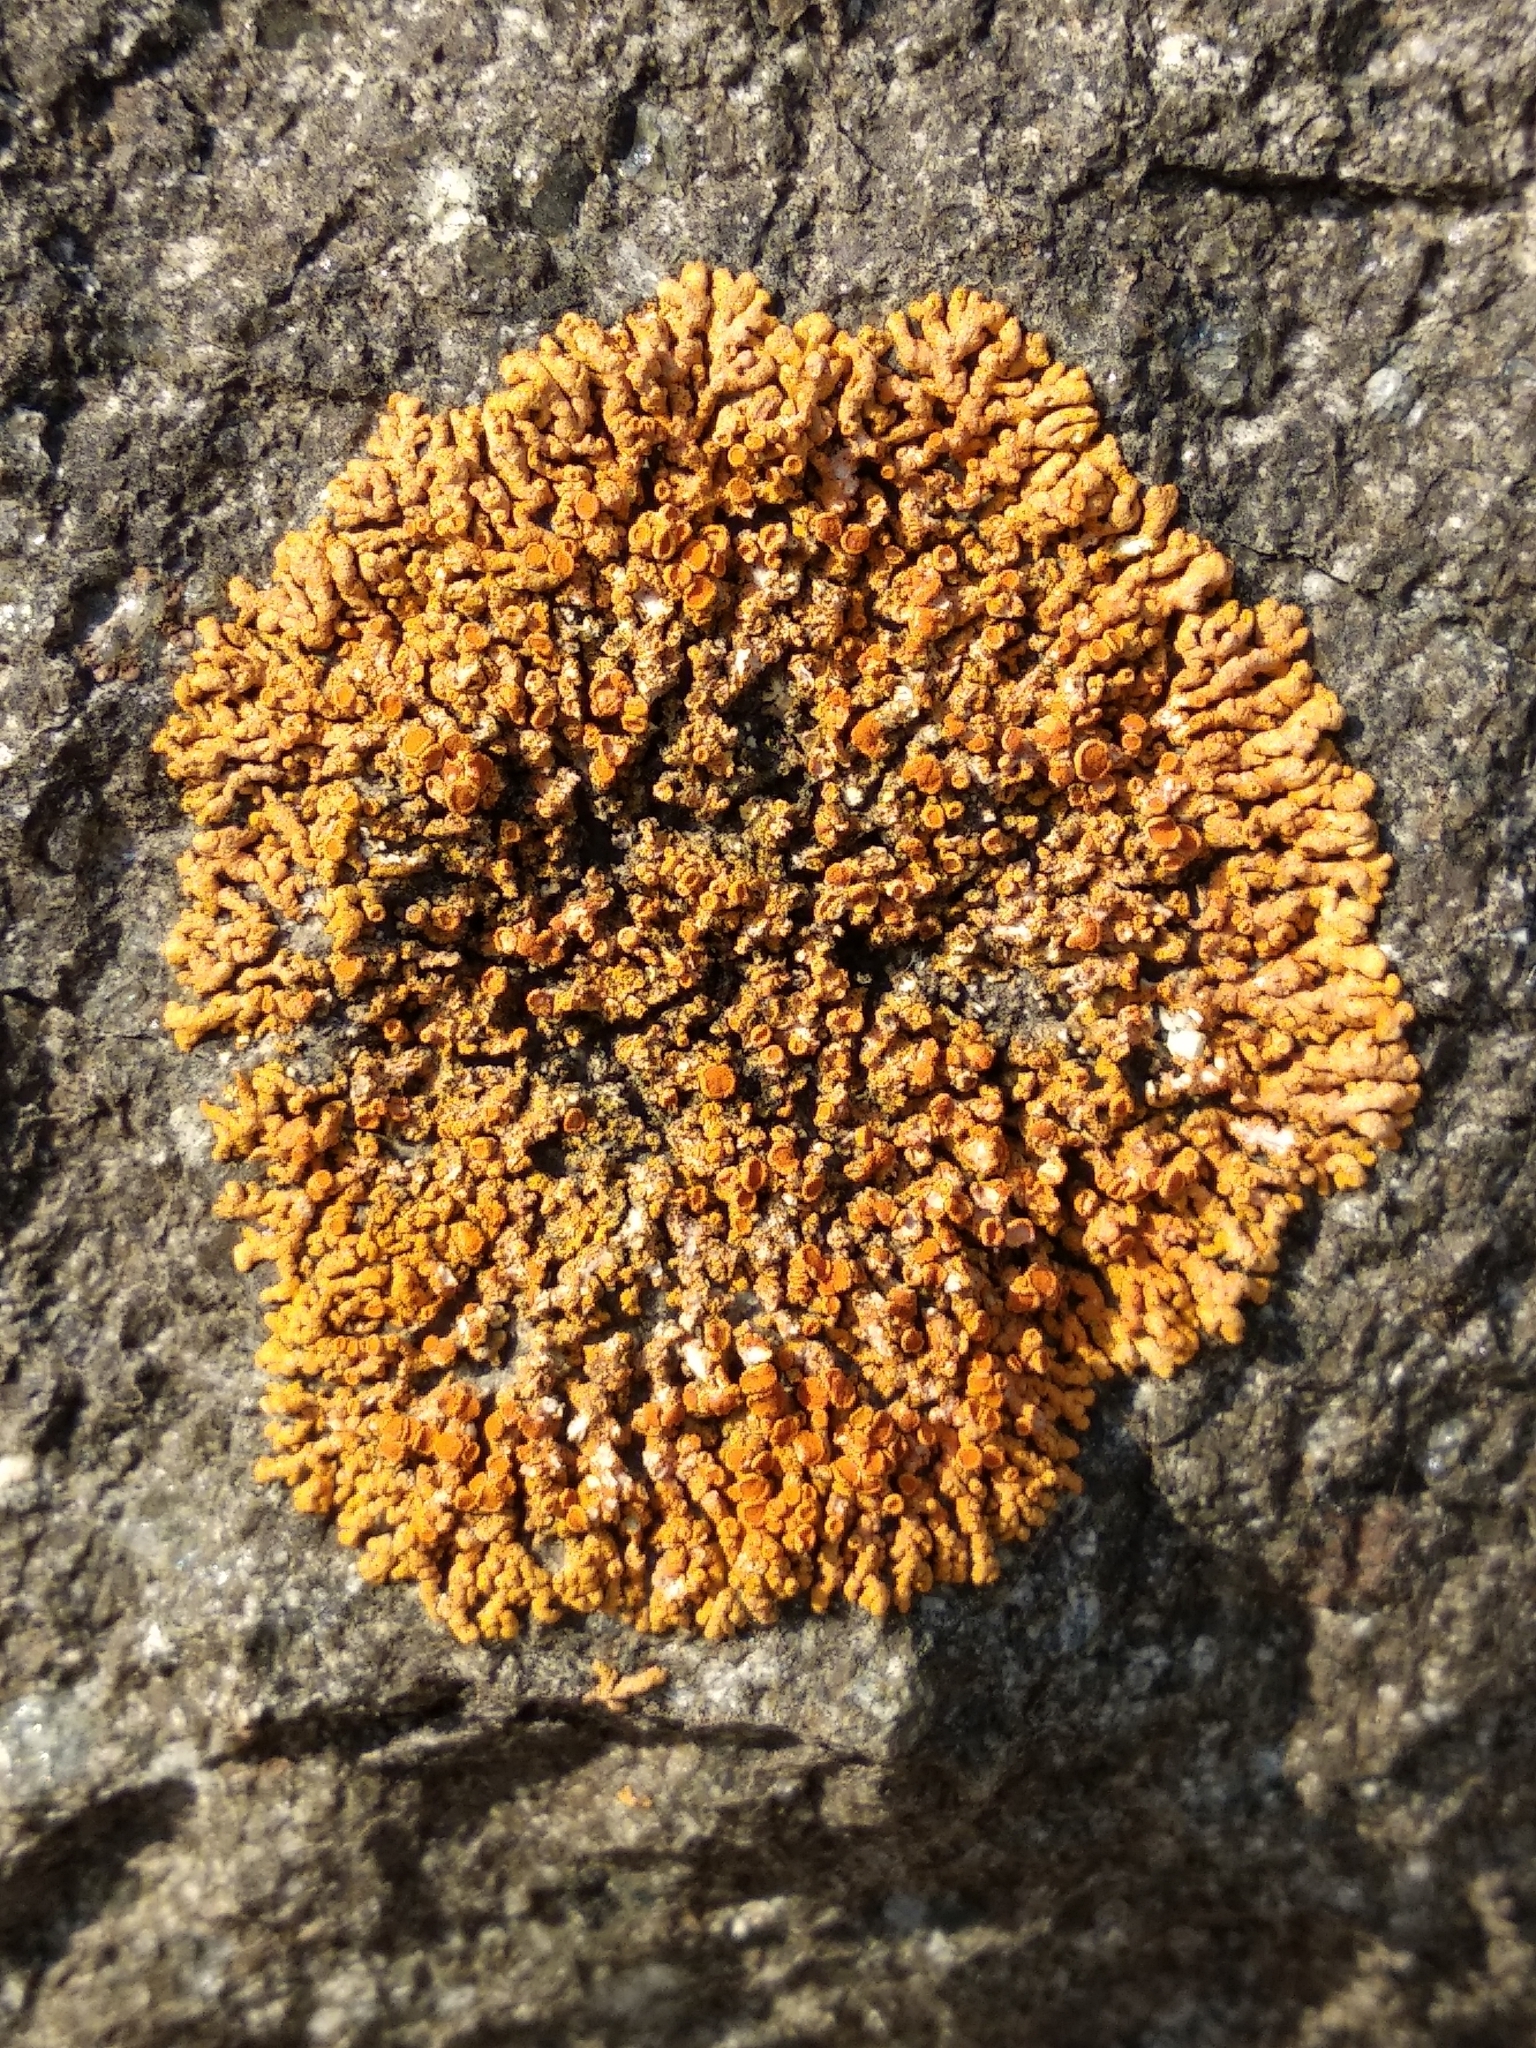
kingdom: Fungi
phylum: Ascomycota
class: Lecanoromycetes
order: Teloschistales
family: Teloschistaceae
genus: Xanthoria
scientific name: Xanthoria elegans
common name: Elegant sunburst lichen
